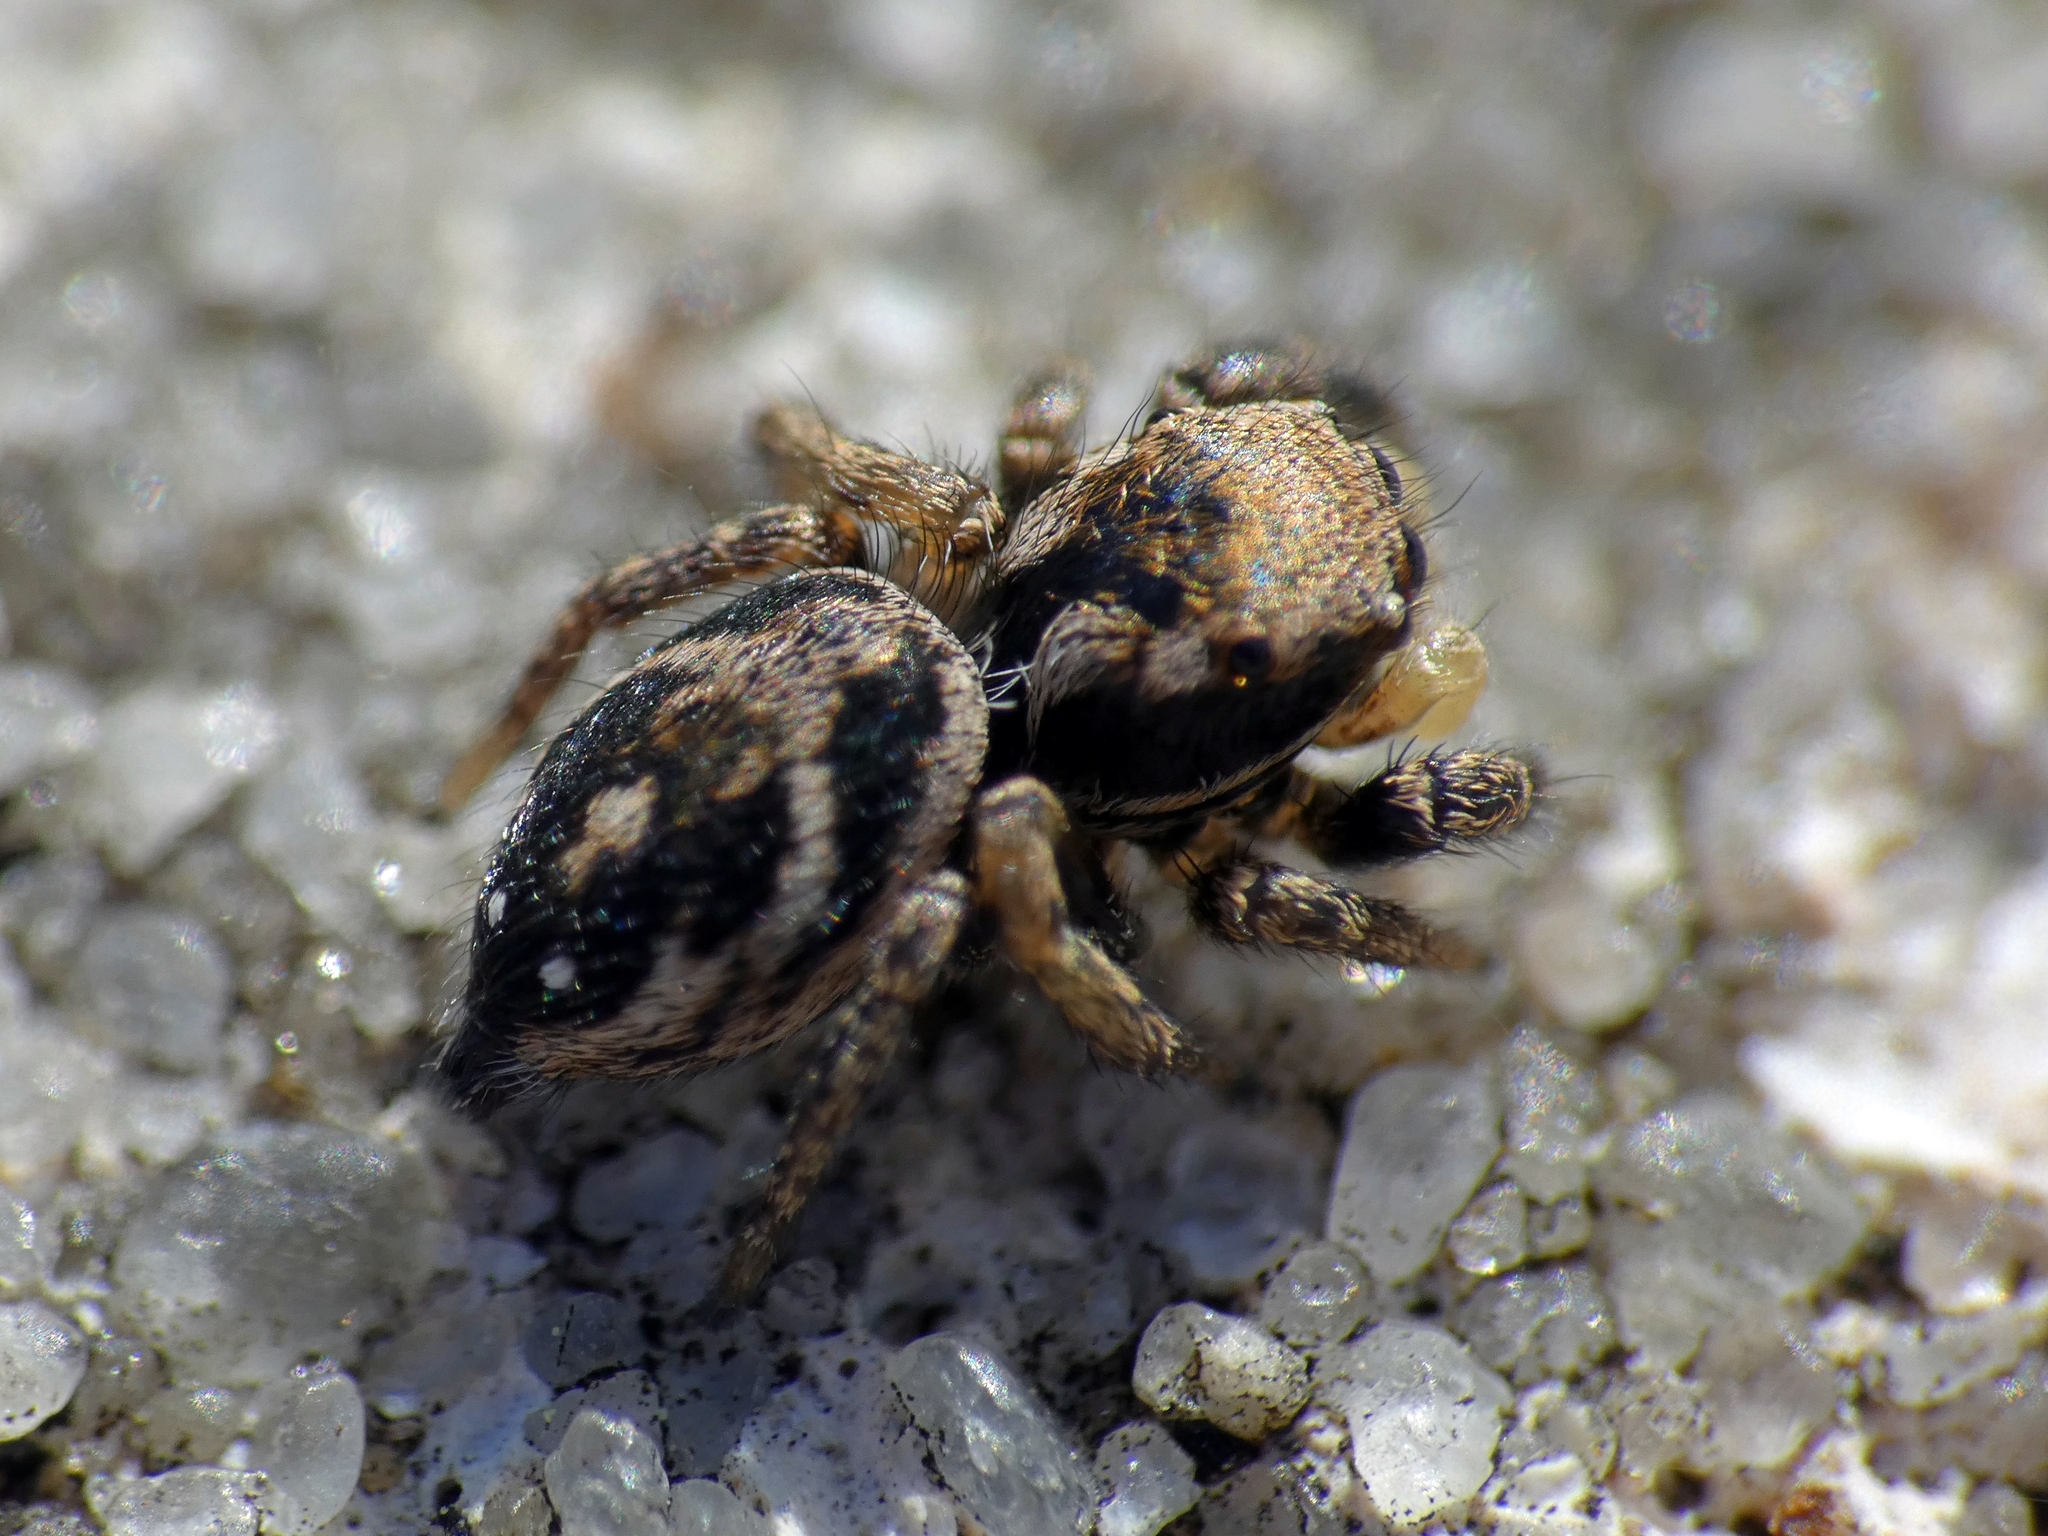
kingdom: Animalia
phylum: Arthropoda
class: Arachnida
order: Araneae
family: Salticidae
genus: Habronattus
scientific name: Habronattus brunneus
